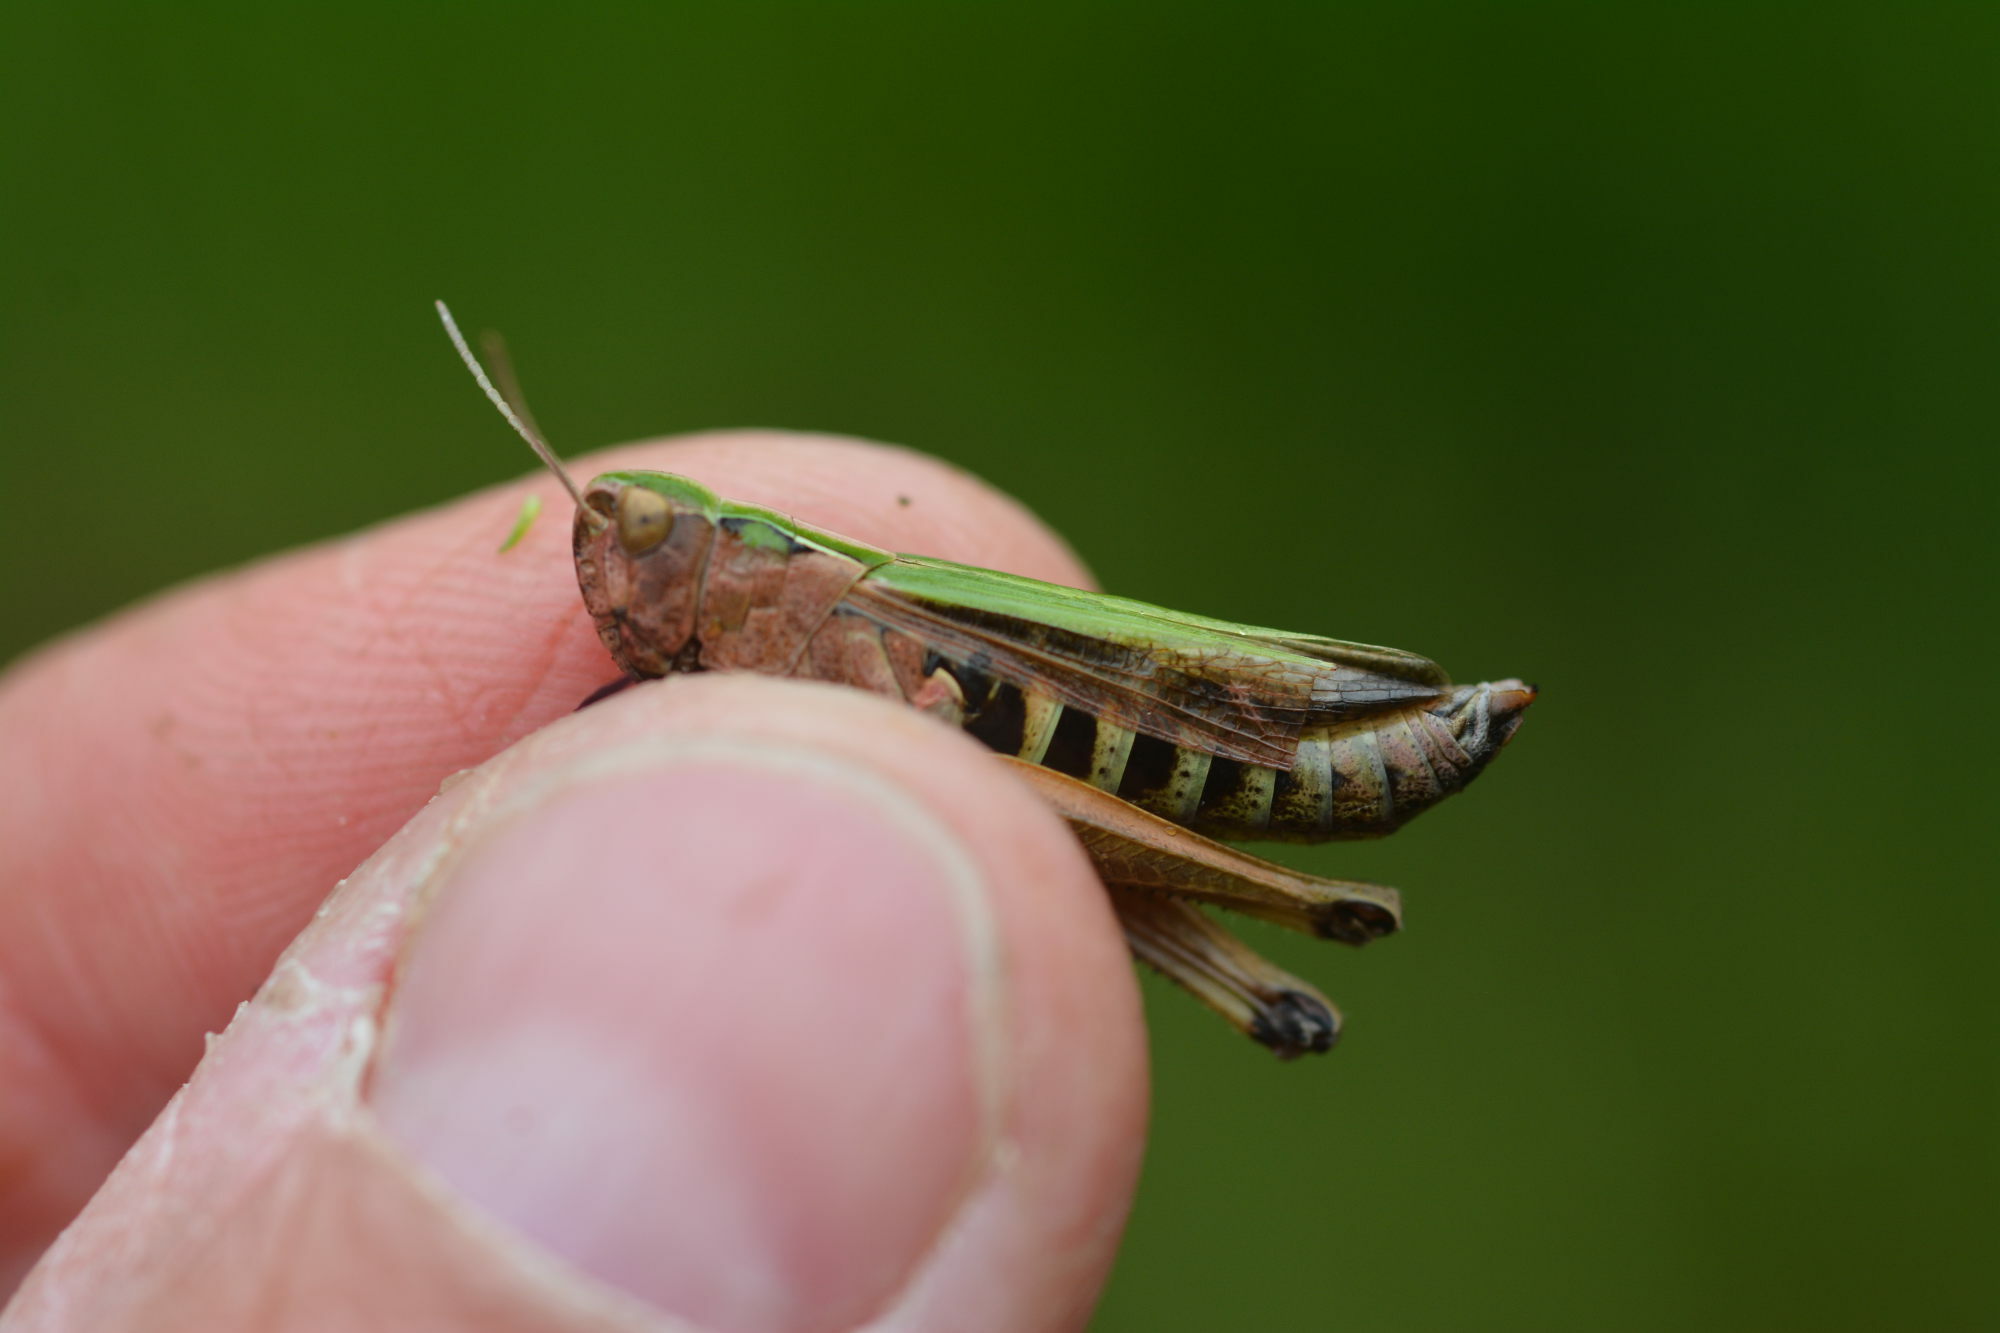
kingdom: Animalia
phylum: Arthropoda
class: Insecta
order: Orthoptera
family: Acrididae
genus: Omocestus
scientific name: Omocestus viridulus
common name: Common green grasshopper
